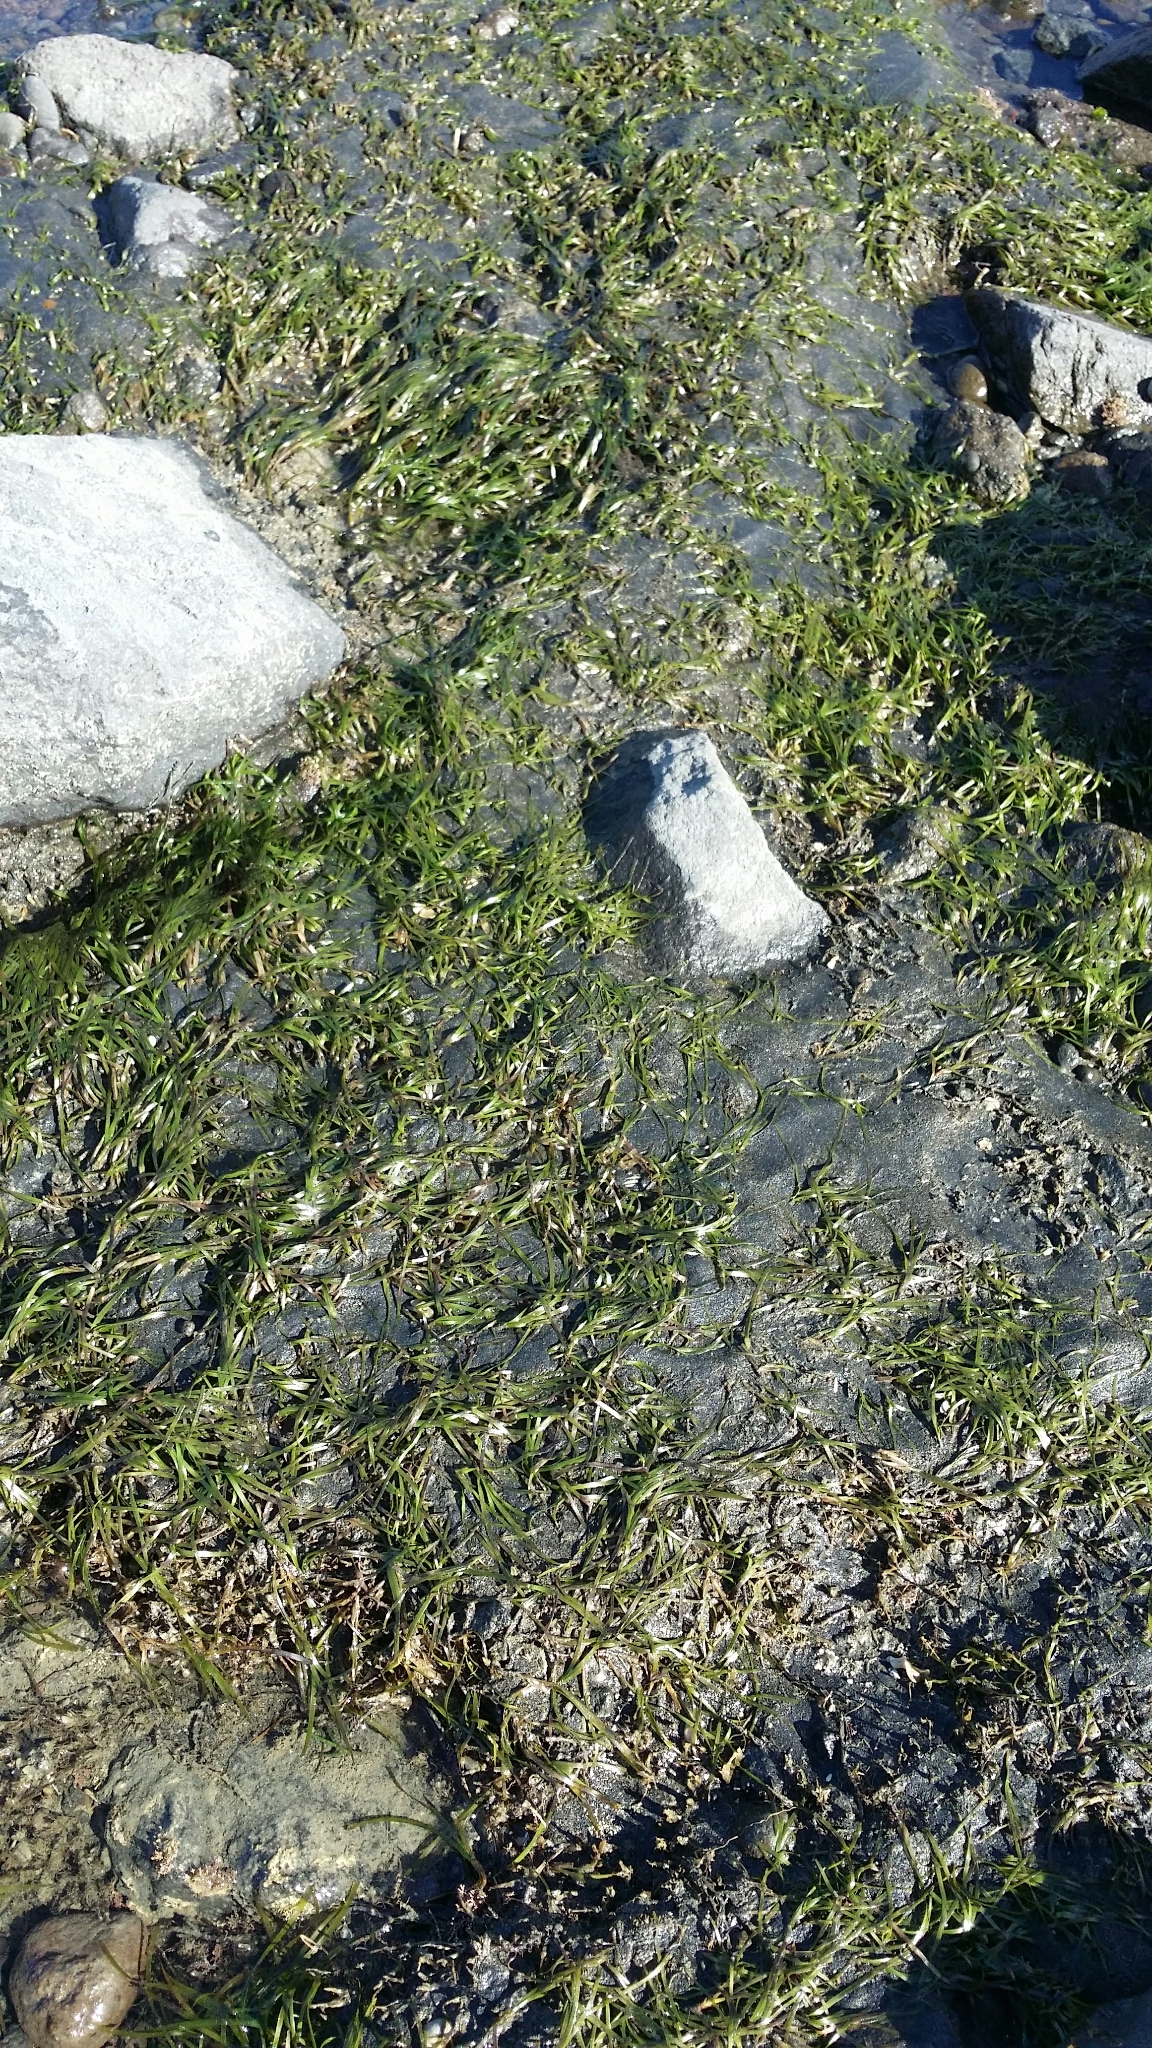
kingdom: Plantae
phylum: Tracheophyta
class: Liliopsida
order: Alismatales
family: Zosteraceae
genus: Zostera
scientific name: Zostera novazelandica
